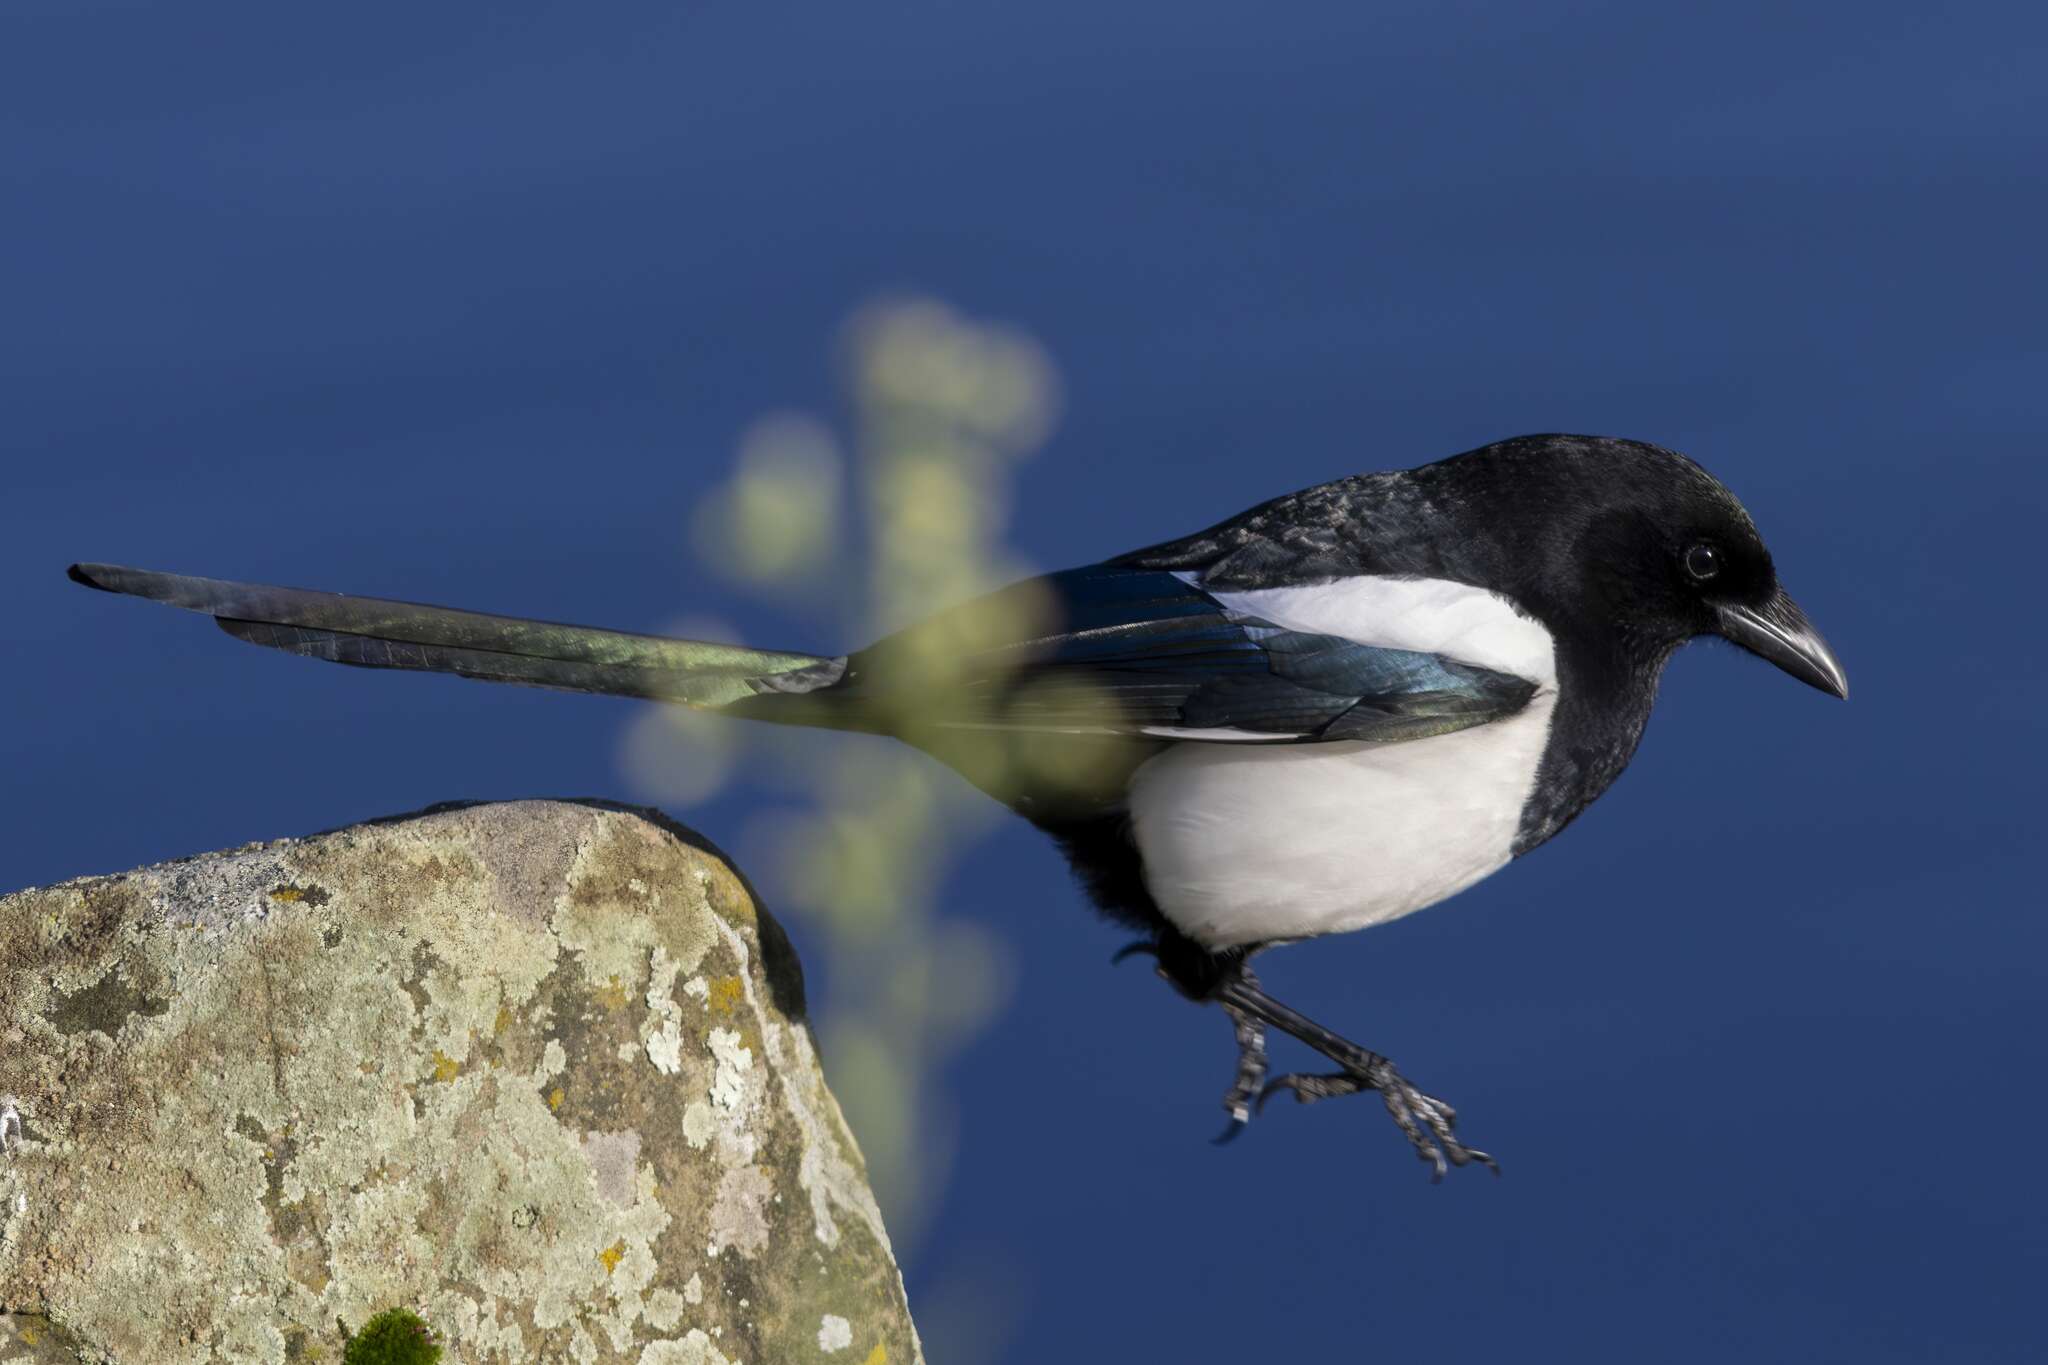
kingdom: Animalia
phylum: Chordata
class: Aves
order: Passeriformes
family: Corvidae
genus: Pica
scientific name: Pica pica
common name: Eurasian magpie
